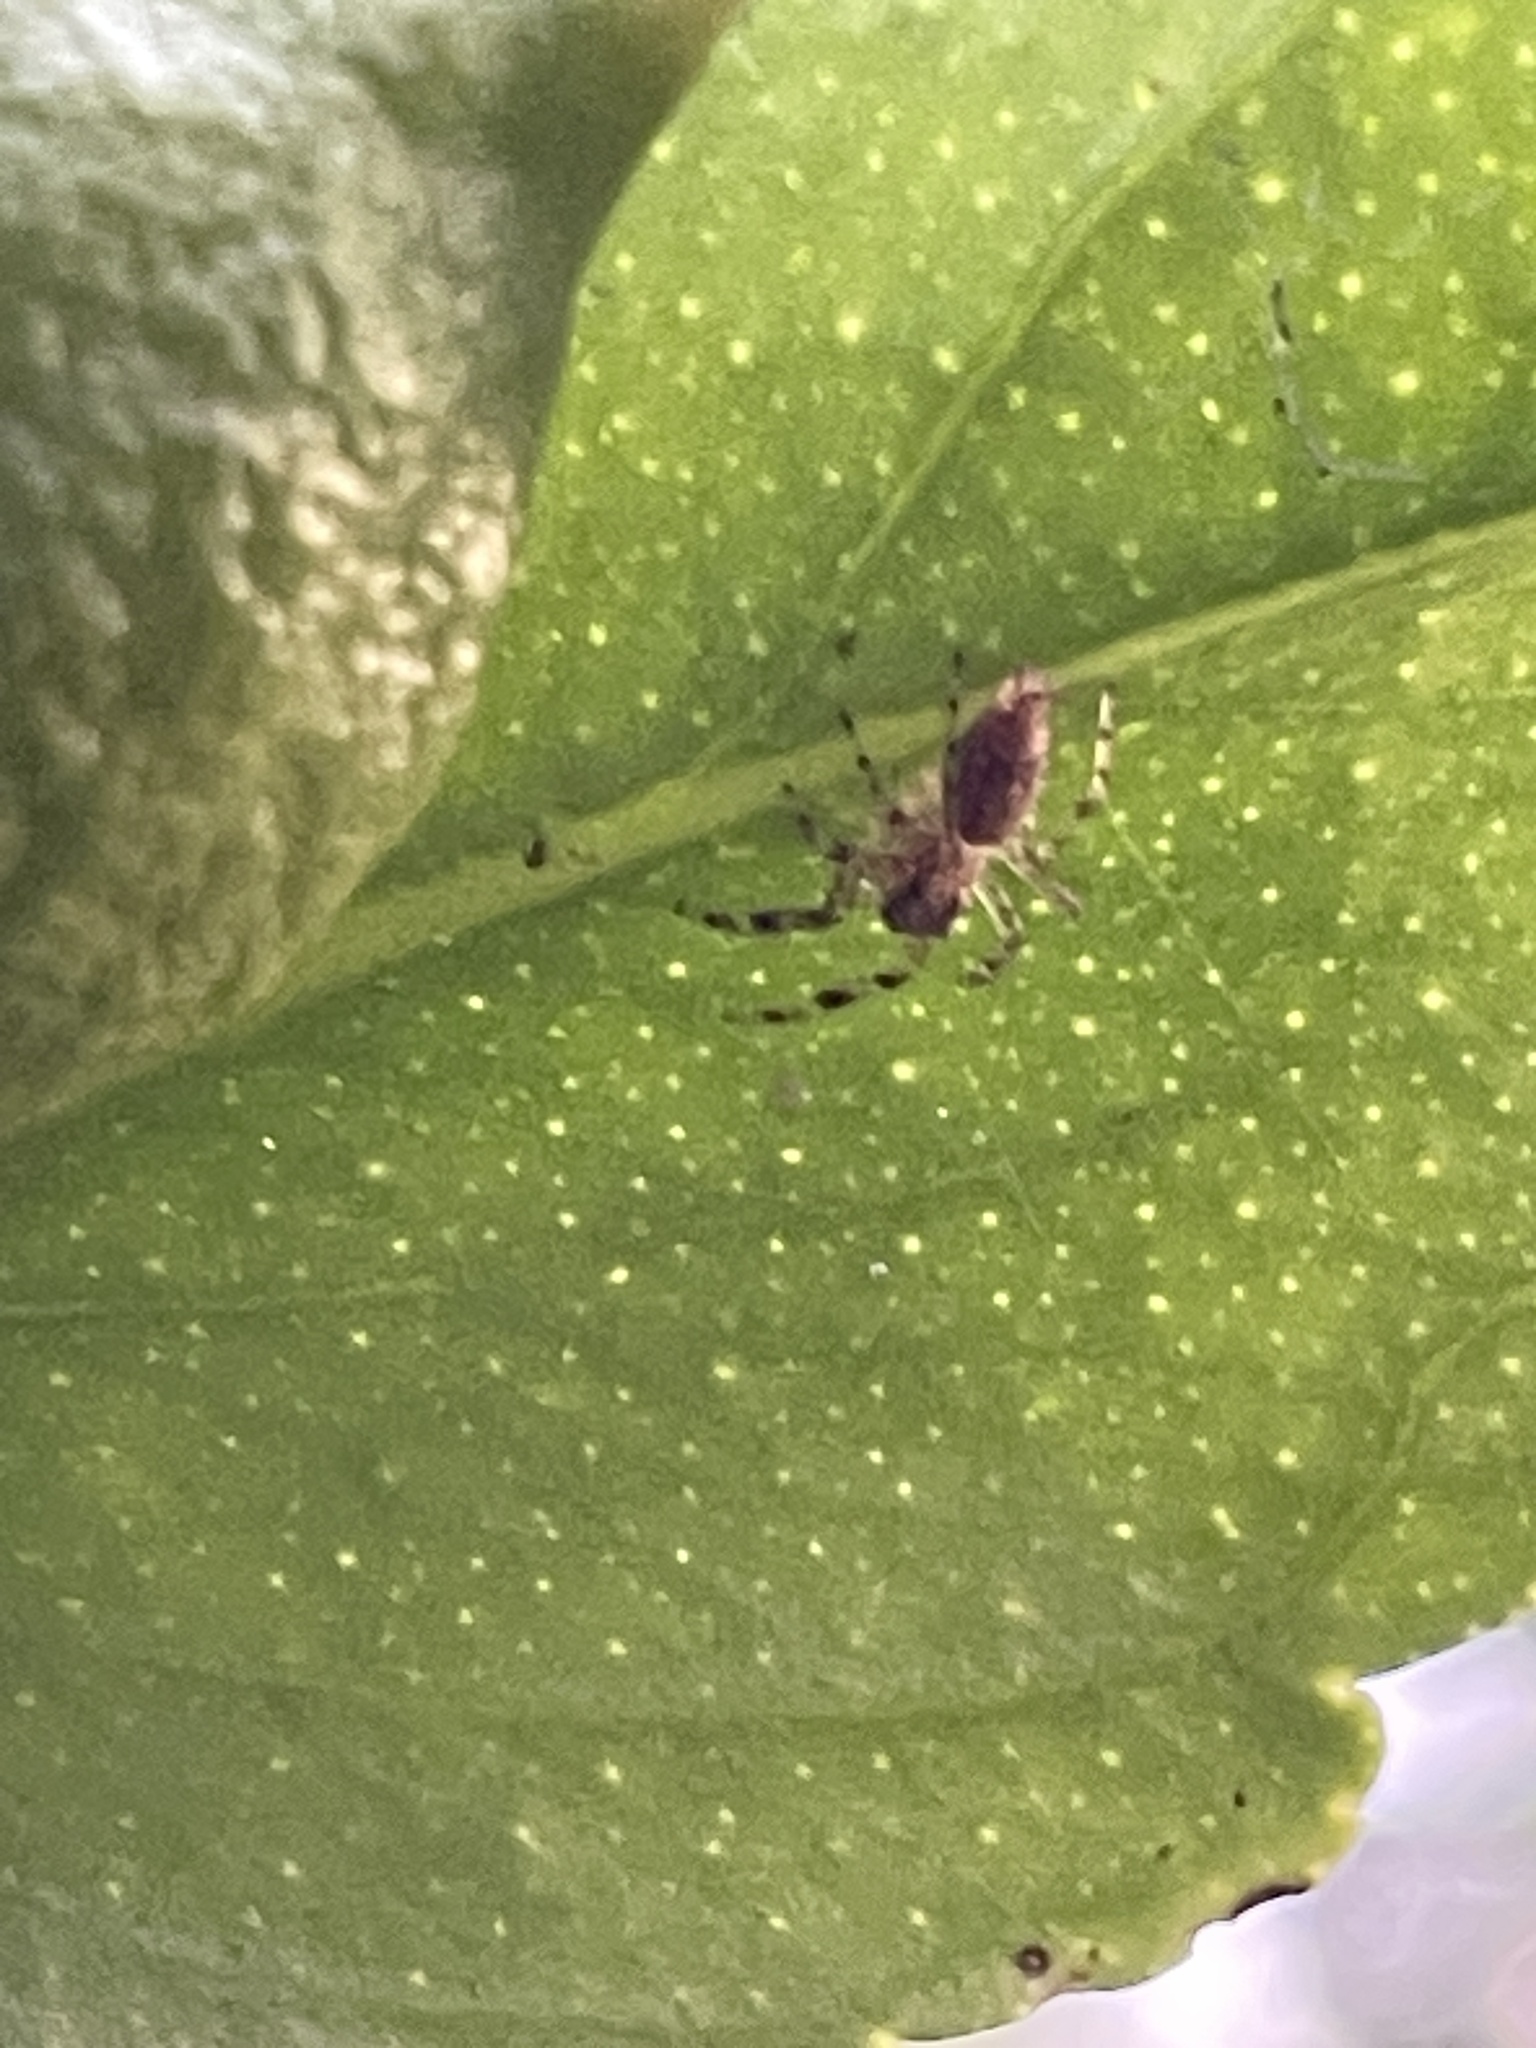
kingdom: Animalia
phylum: Arthropoda
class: Arachnida
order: Araneae
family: Salticidae
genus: Helpis
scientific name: Helpis minitabunda
